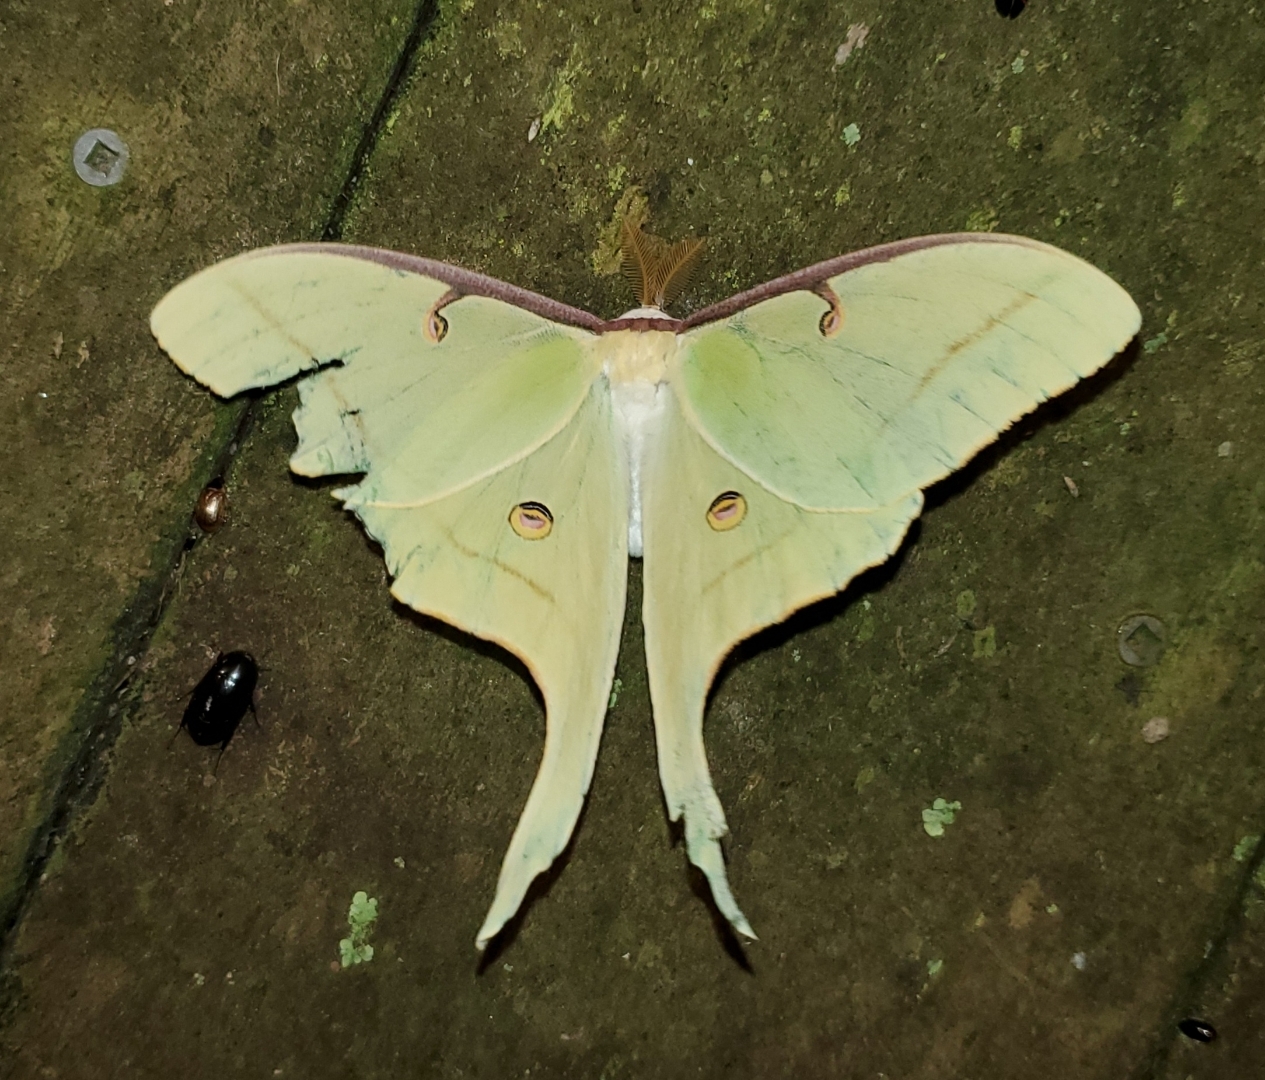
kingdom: Animalia
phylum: Arthropoda
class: Insecta
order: Lepidoptera
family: Saturniidae
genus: Actias
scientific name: Actias luna
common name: Luna moth
